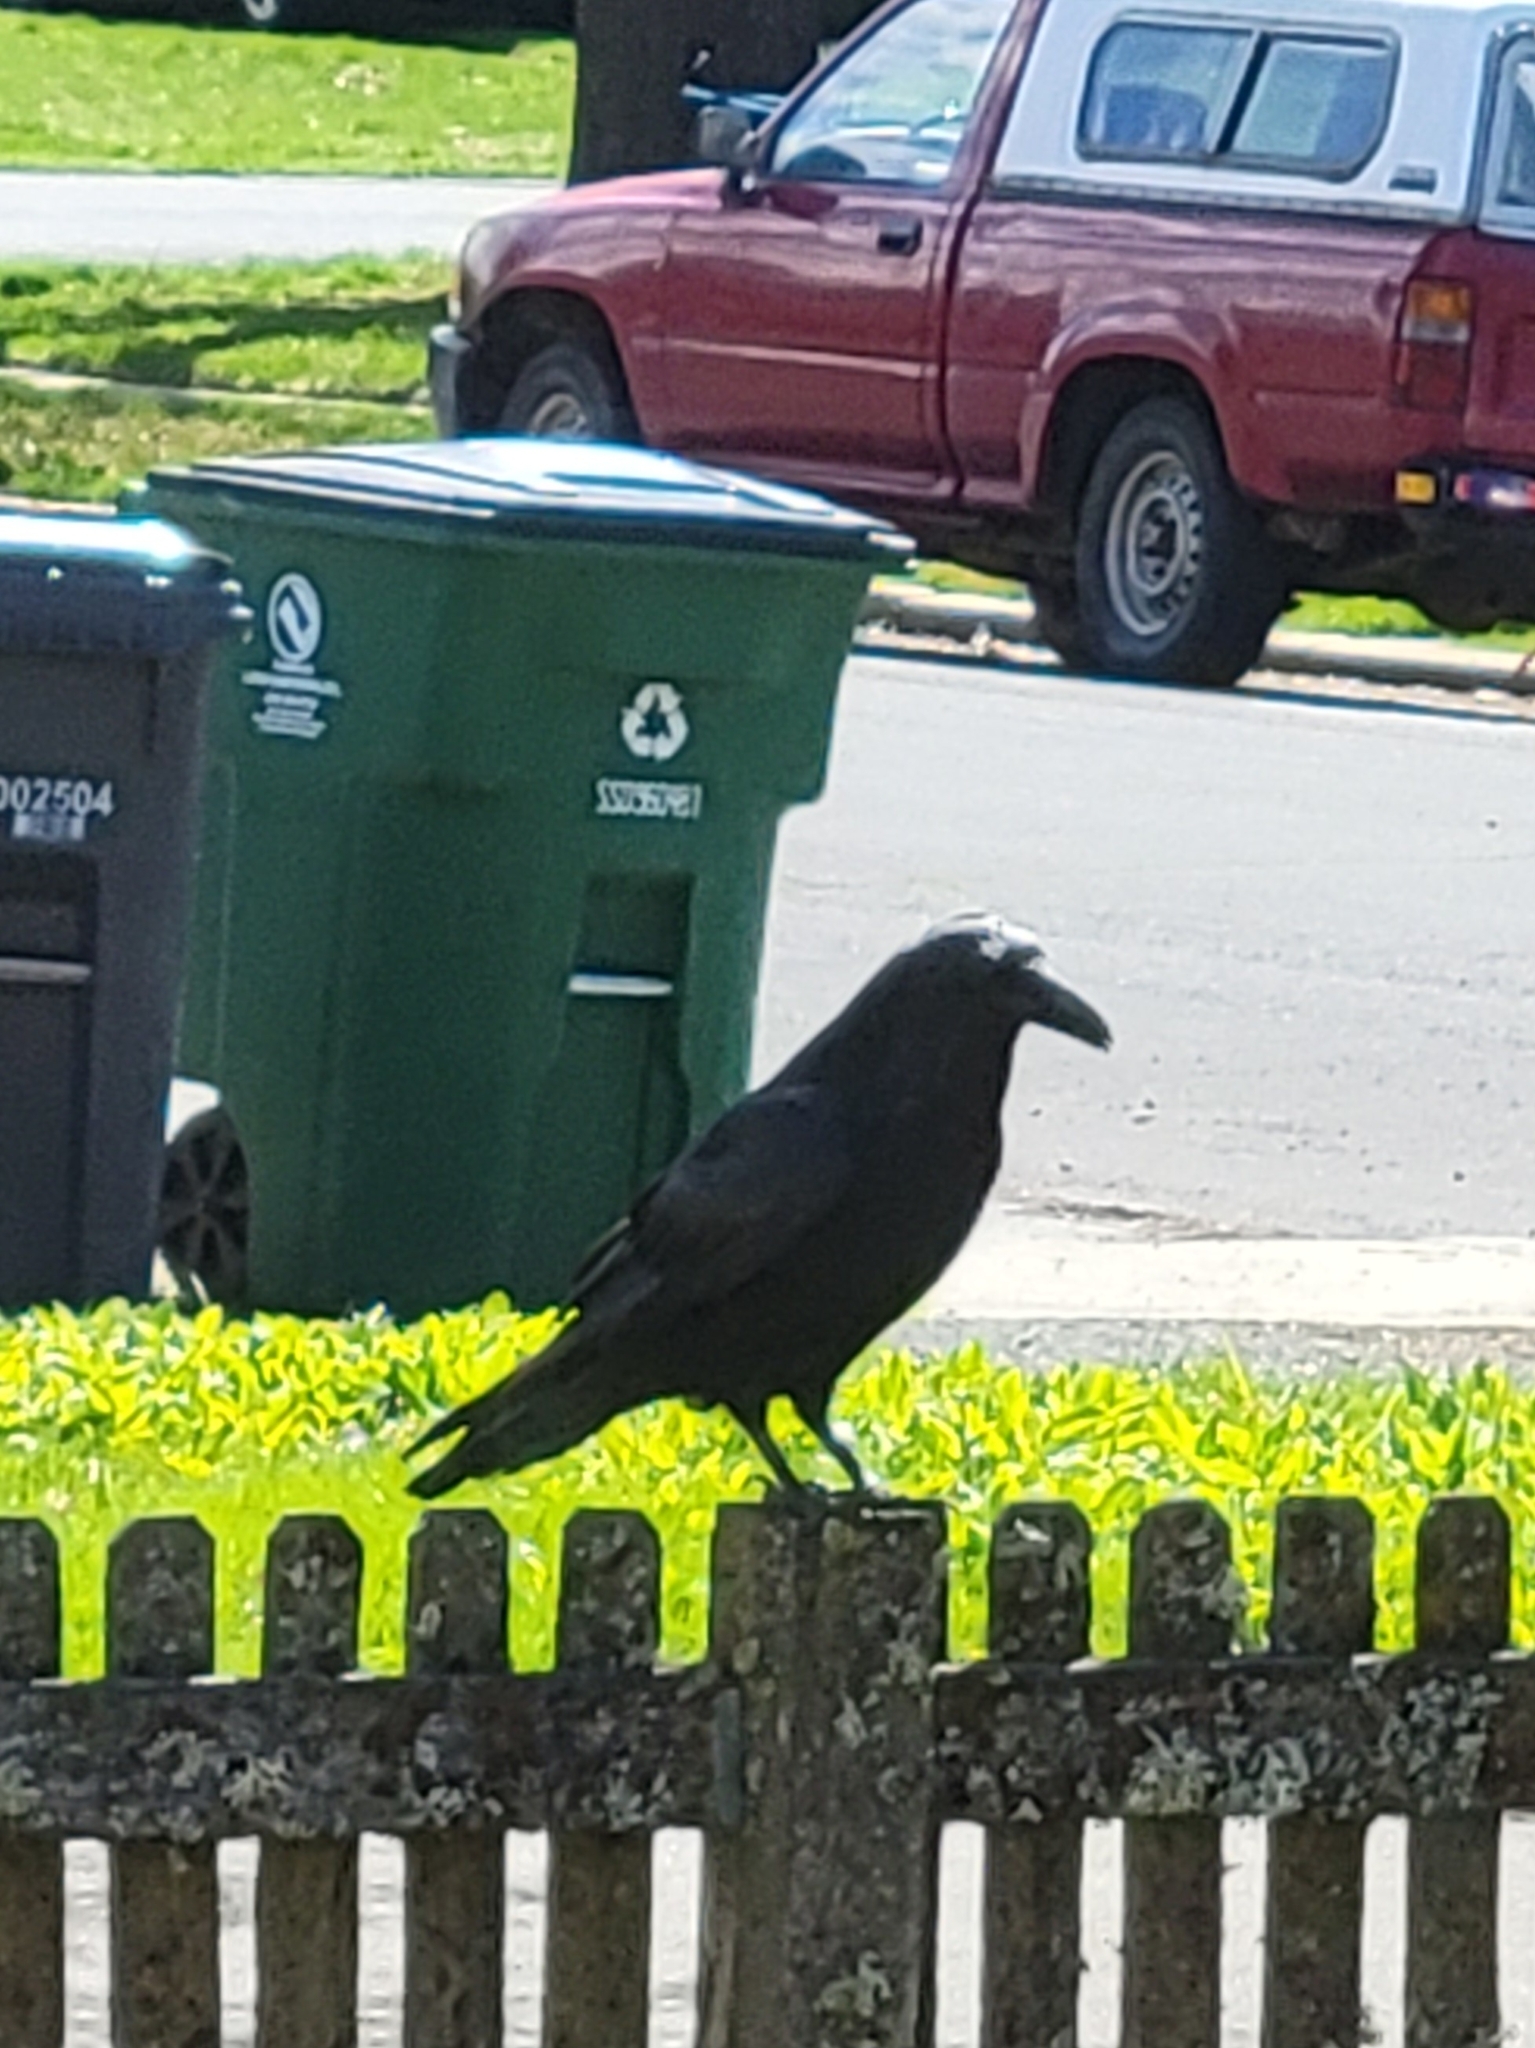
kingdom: Animalia
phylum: Chordata
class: Aves
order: Passeriformes
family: Corvidae
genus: Corvus
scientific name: Corvus corax
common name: Common raven
